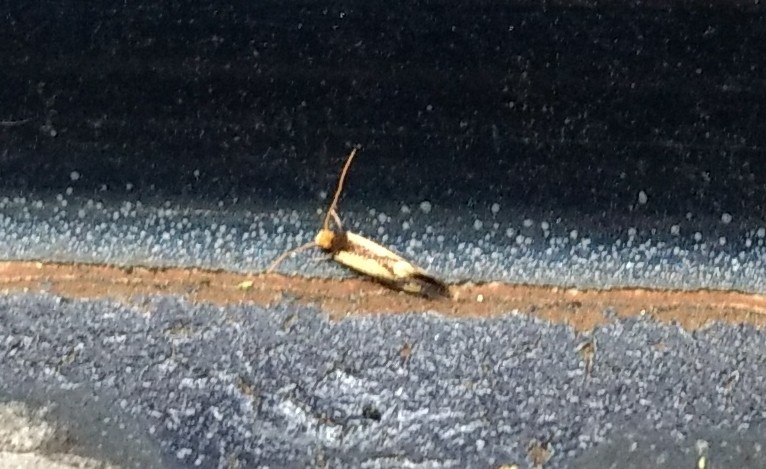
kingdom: Animalia
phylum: Arthropoda
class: Insecta
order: Lepidoptera
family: Meessiidae
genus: Isocorypha
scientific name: Isocorypha mediostriatella
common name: Old gold isocorypha moth
